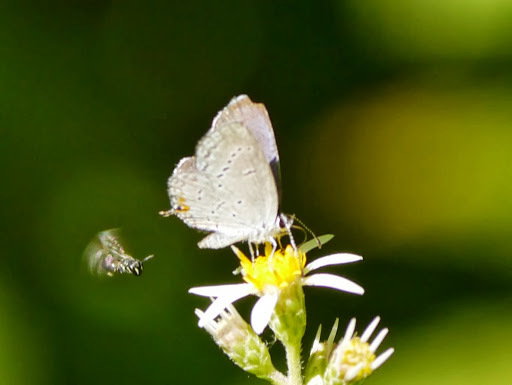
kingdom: Animalia
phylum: Arthropoda
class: Insecta
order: Lepidoptera
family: Lycaenidae
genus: Elkalyce
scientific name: Elkalyce comyntas
